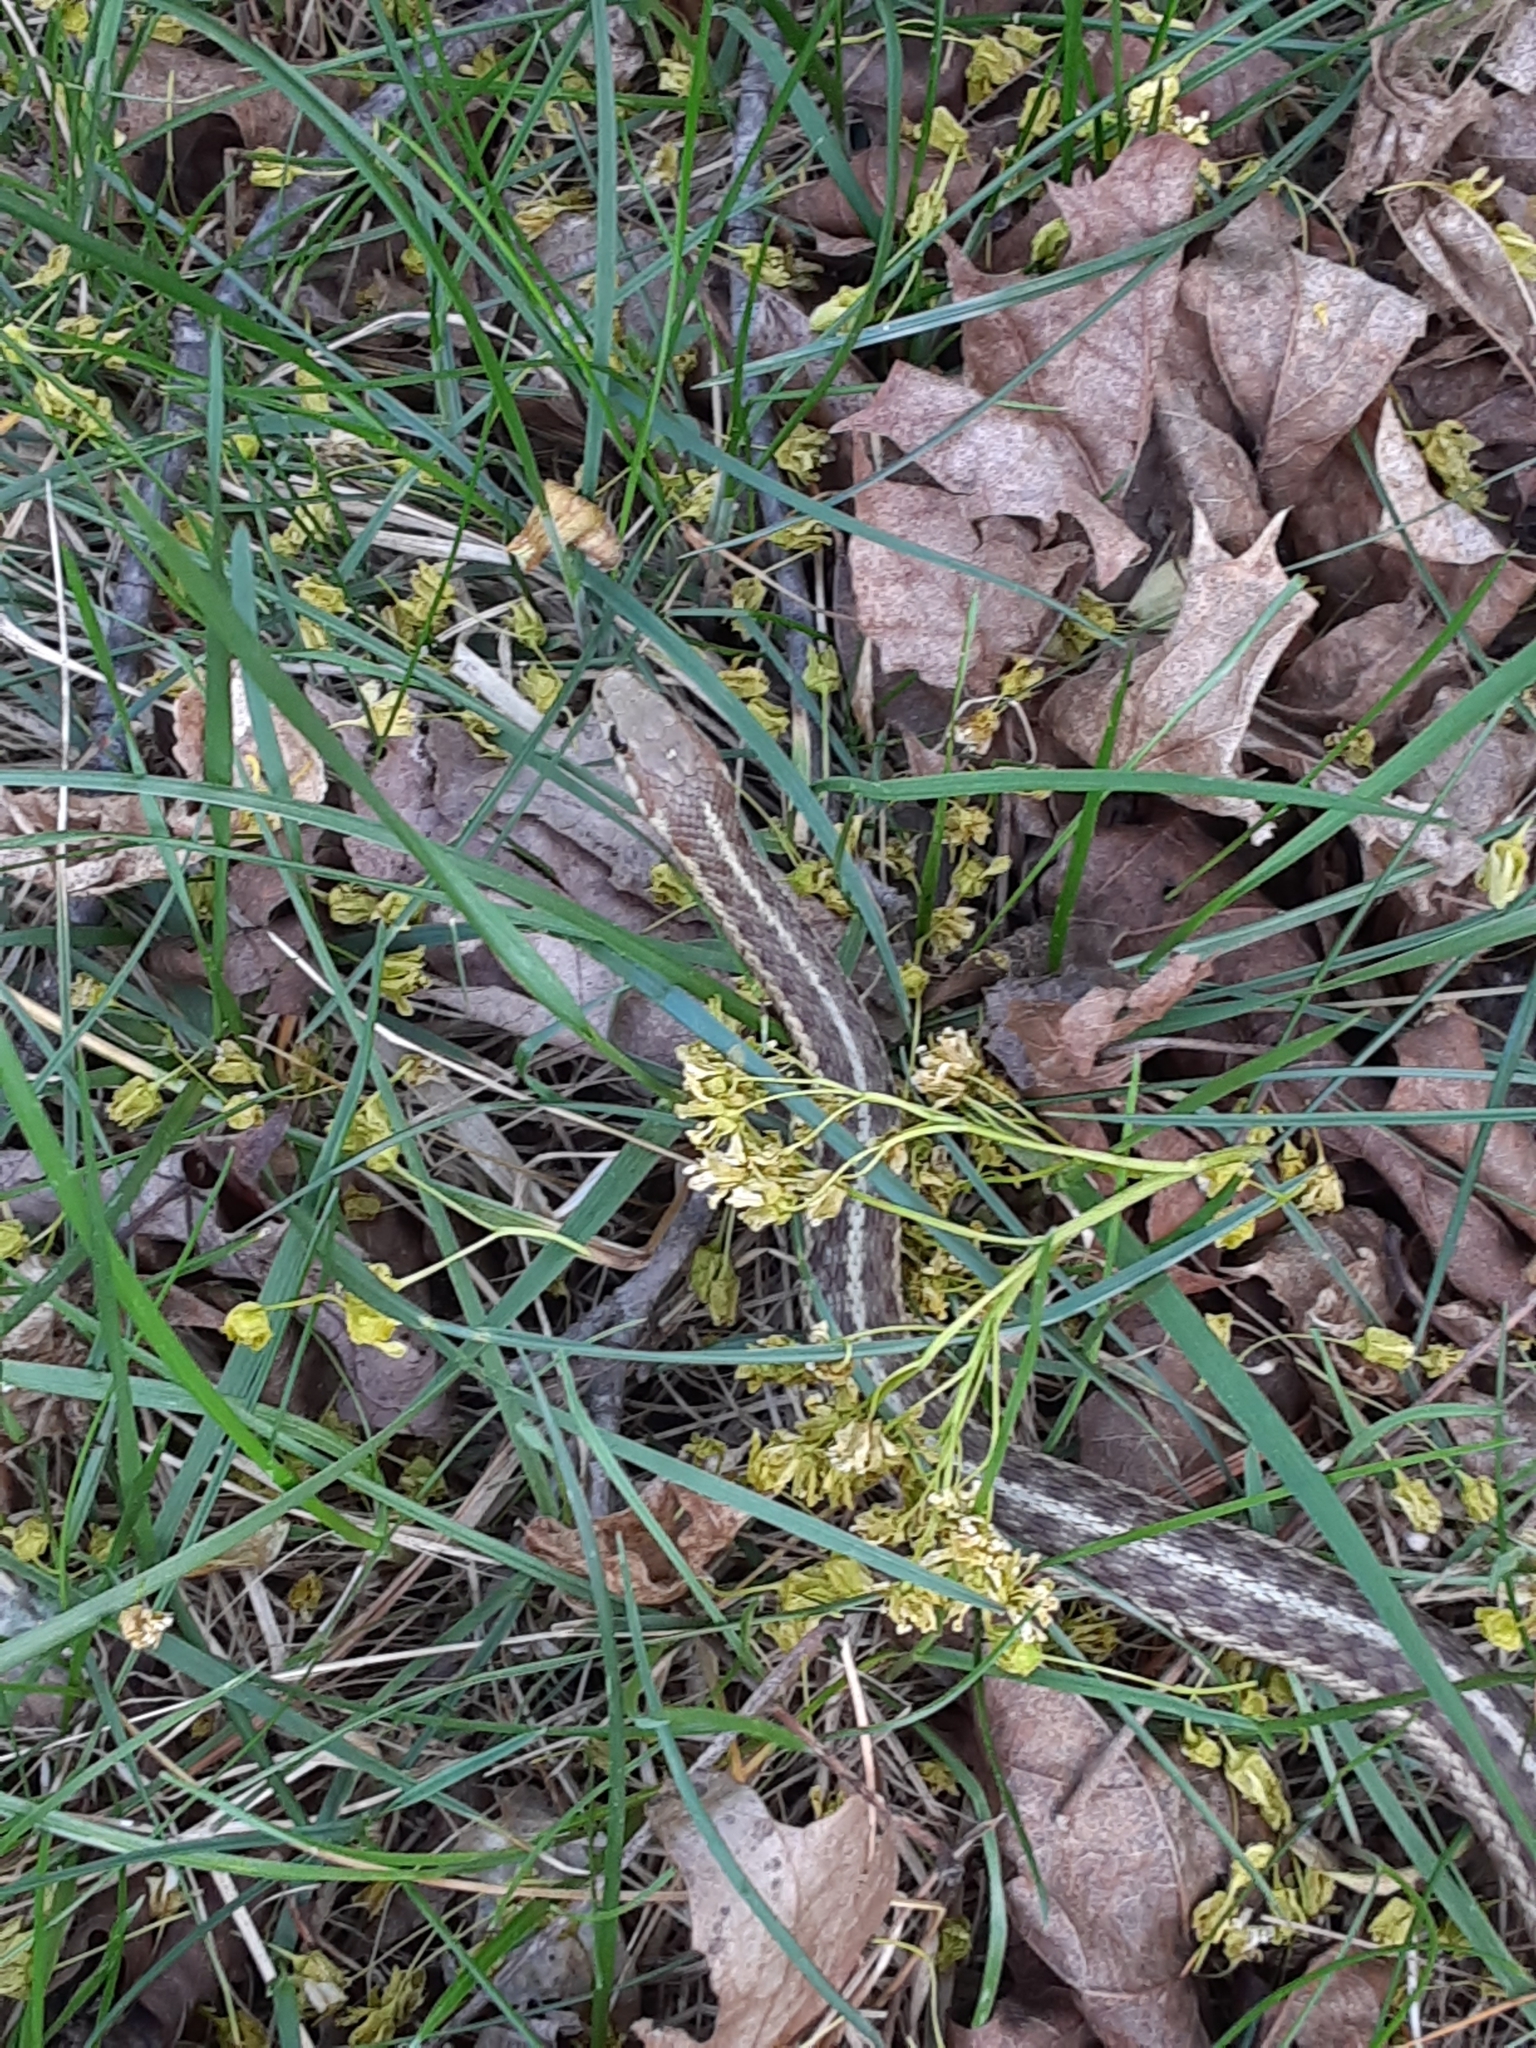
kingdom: Animalia
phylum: Chordata
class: Squamata
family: Colubridae
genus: Thamnophis
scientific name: Thamnophis sirtalis
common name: Common garter snake
